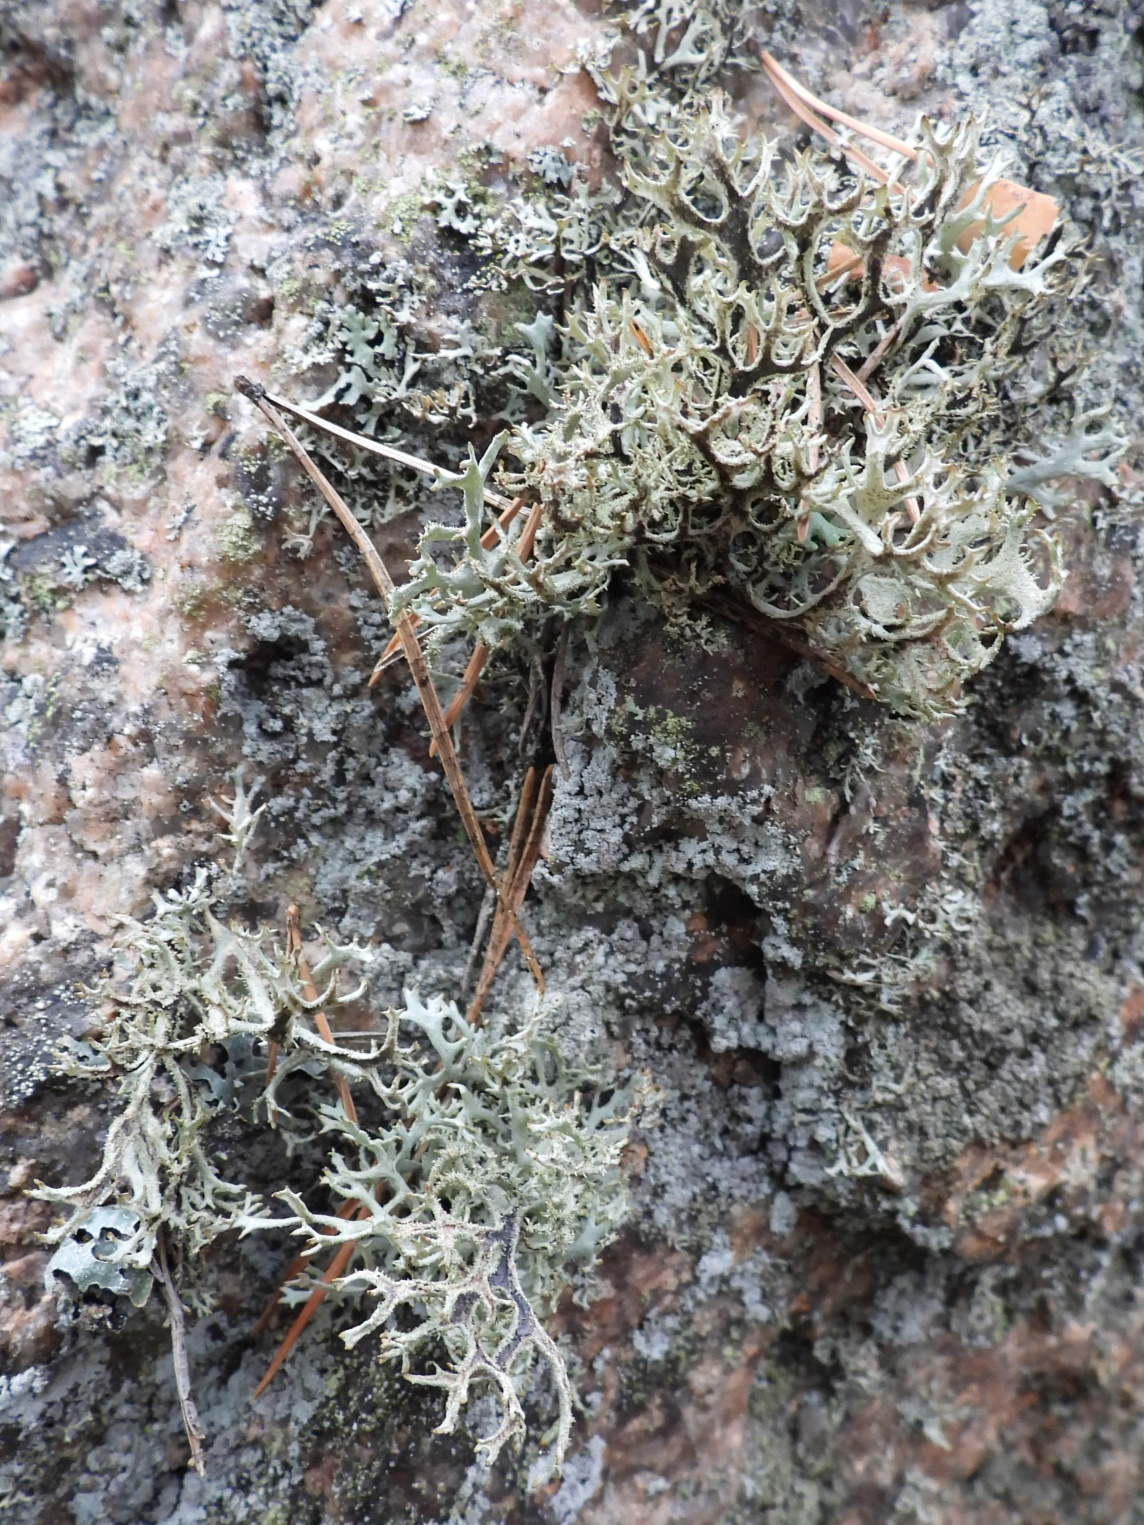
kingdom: Fungi
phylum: Ascomycota
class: Lecanoromycetes
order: Lecanorales
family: Parmeliaceae
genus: Pseudevernia
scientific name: Pseudevernia furfuracea
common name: Tree moss
